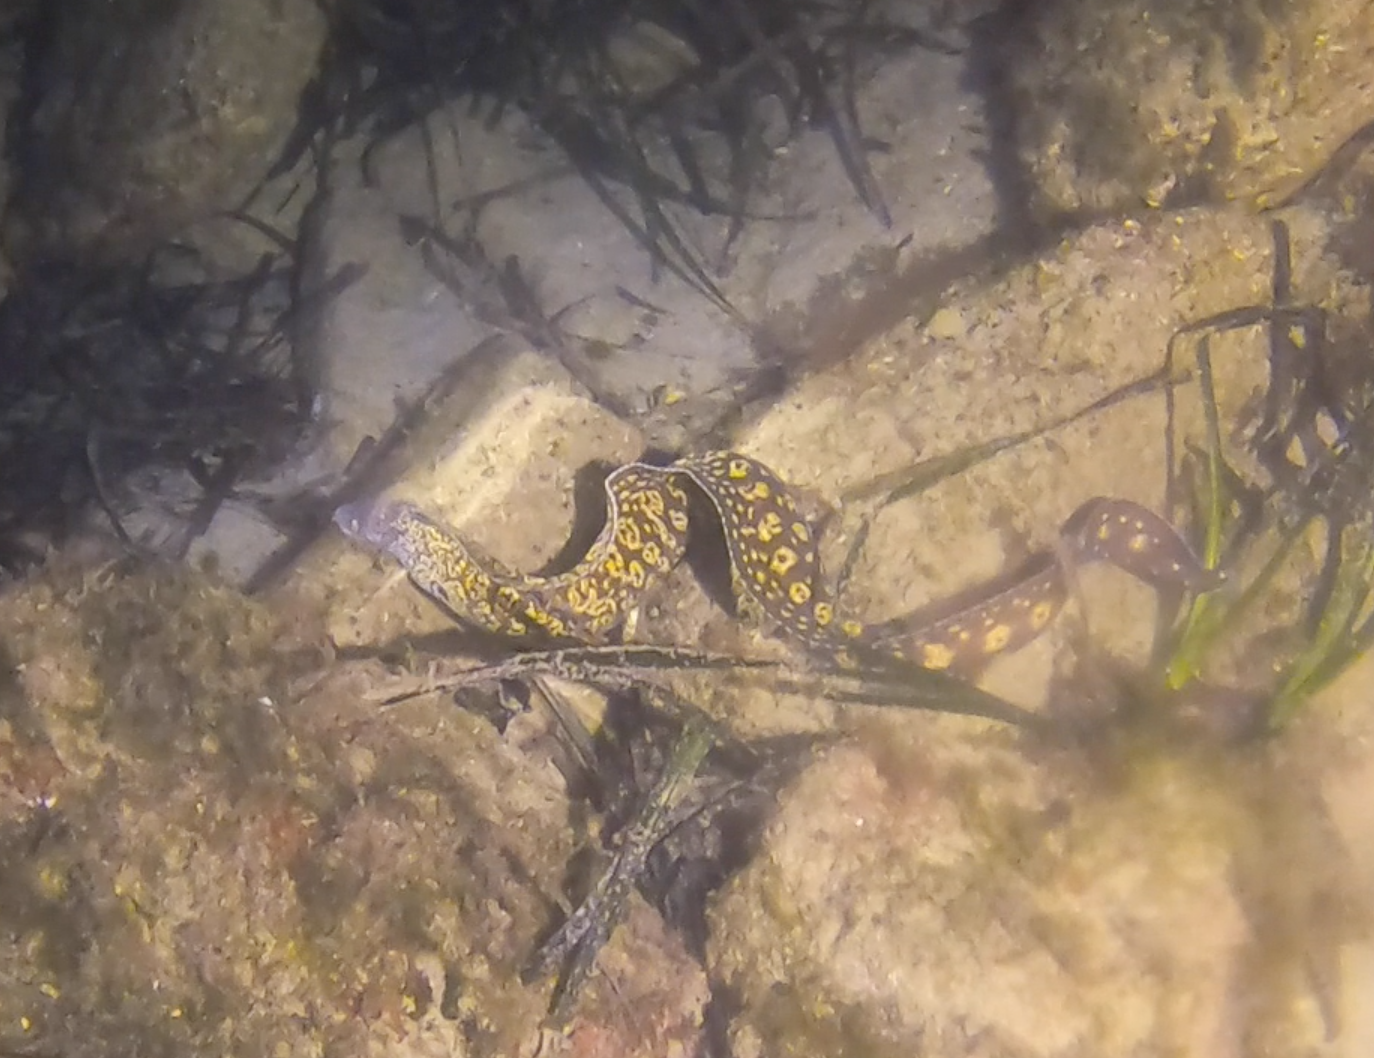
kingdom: Animalia
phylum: Chordata
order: Anguilliformes
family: Muraenidae
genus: Muraena
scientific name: Muraena helena
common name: Mediterranean moray
